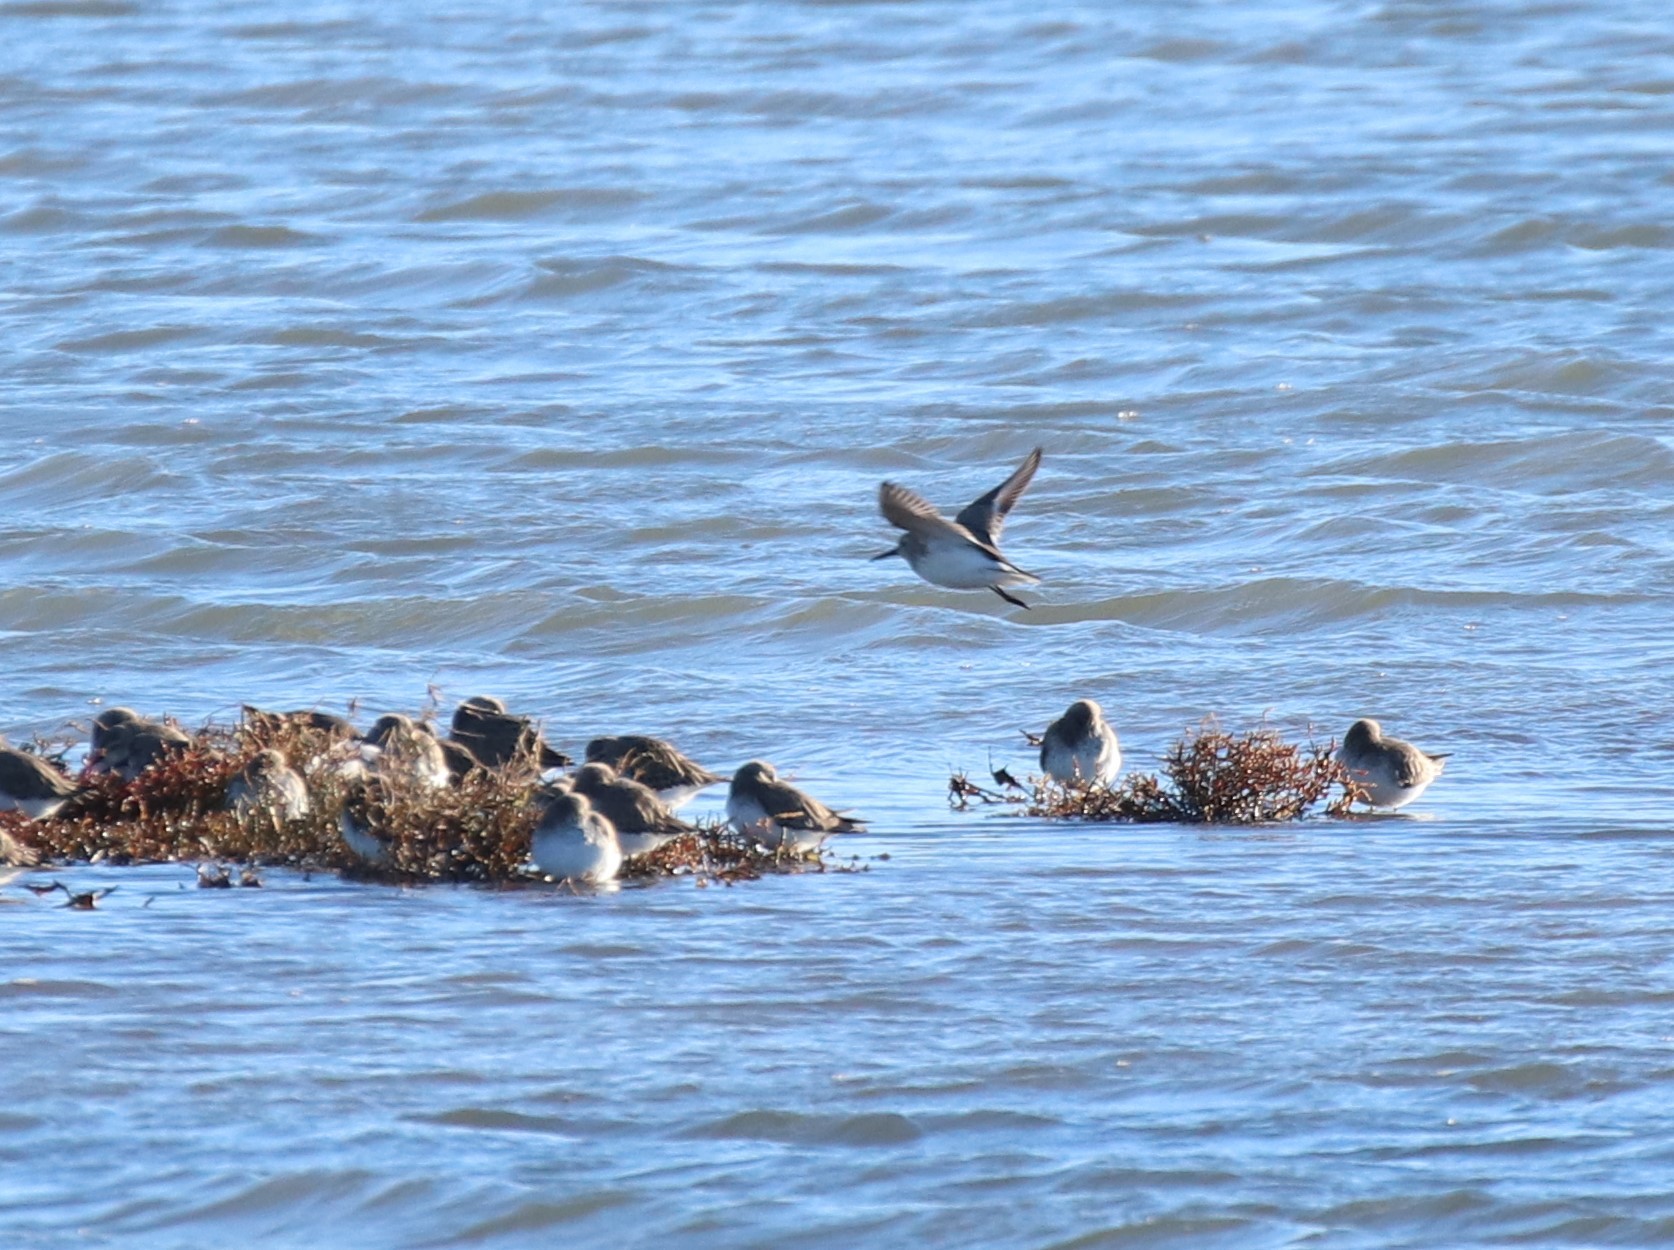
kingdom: Animalia
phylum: Chordata
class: Aves
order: Charadriiformes
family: Scolopacidae
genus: Calidris
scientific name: Calidris alpina
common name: Dunlin
